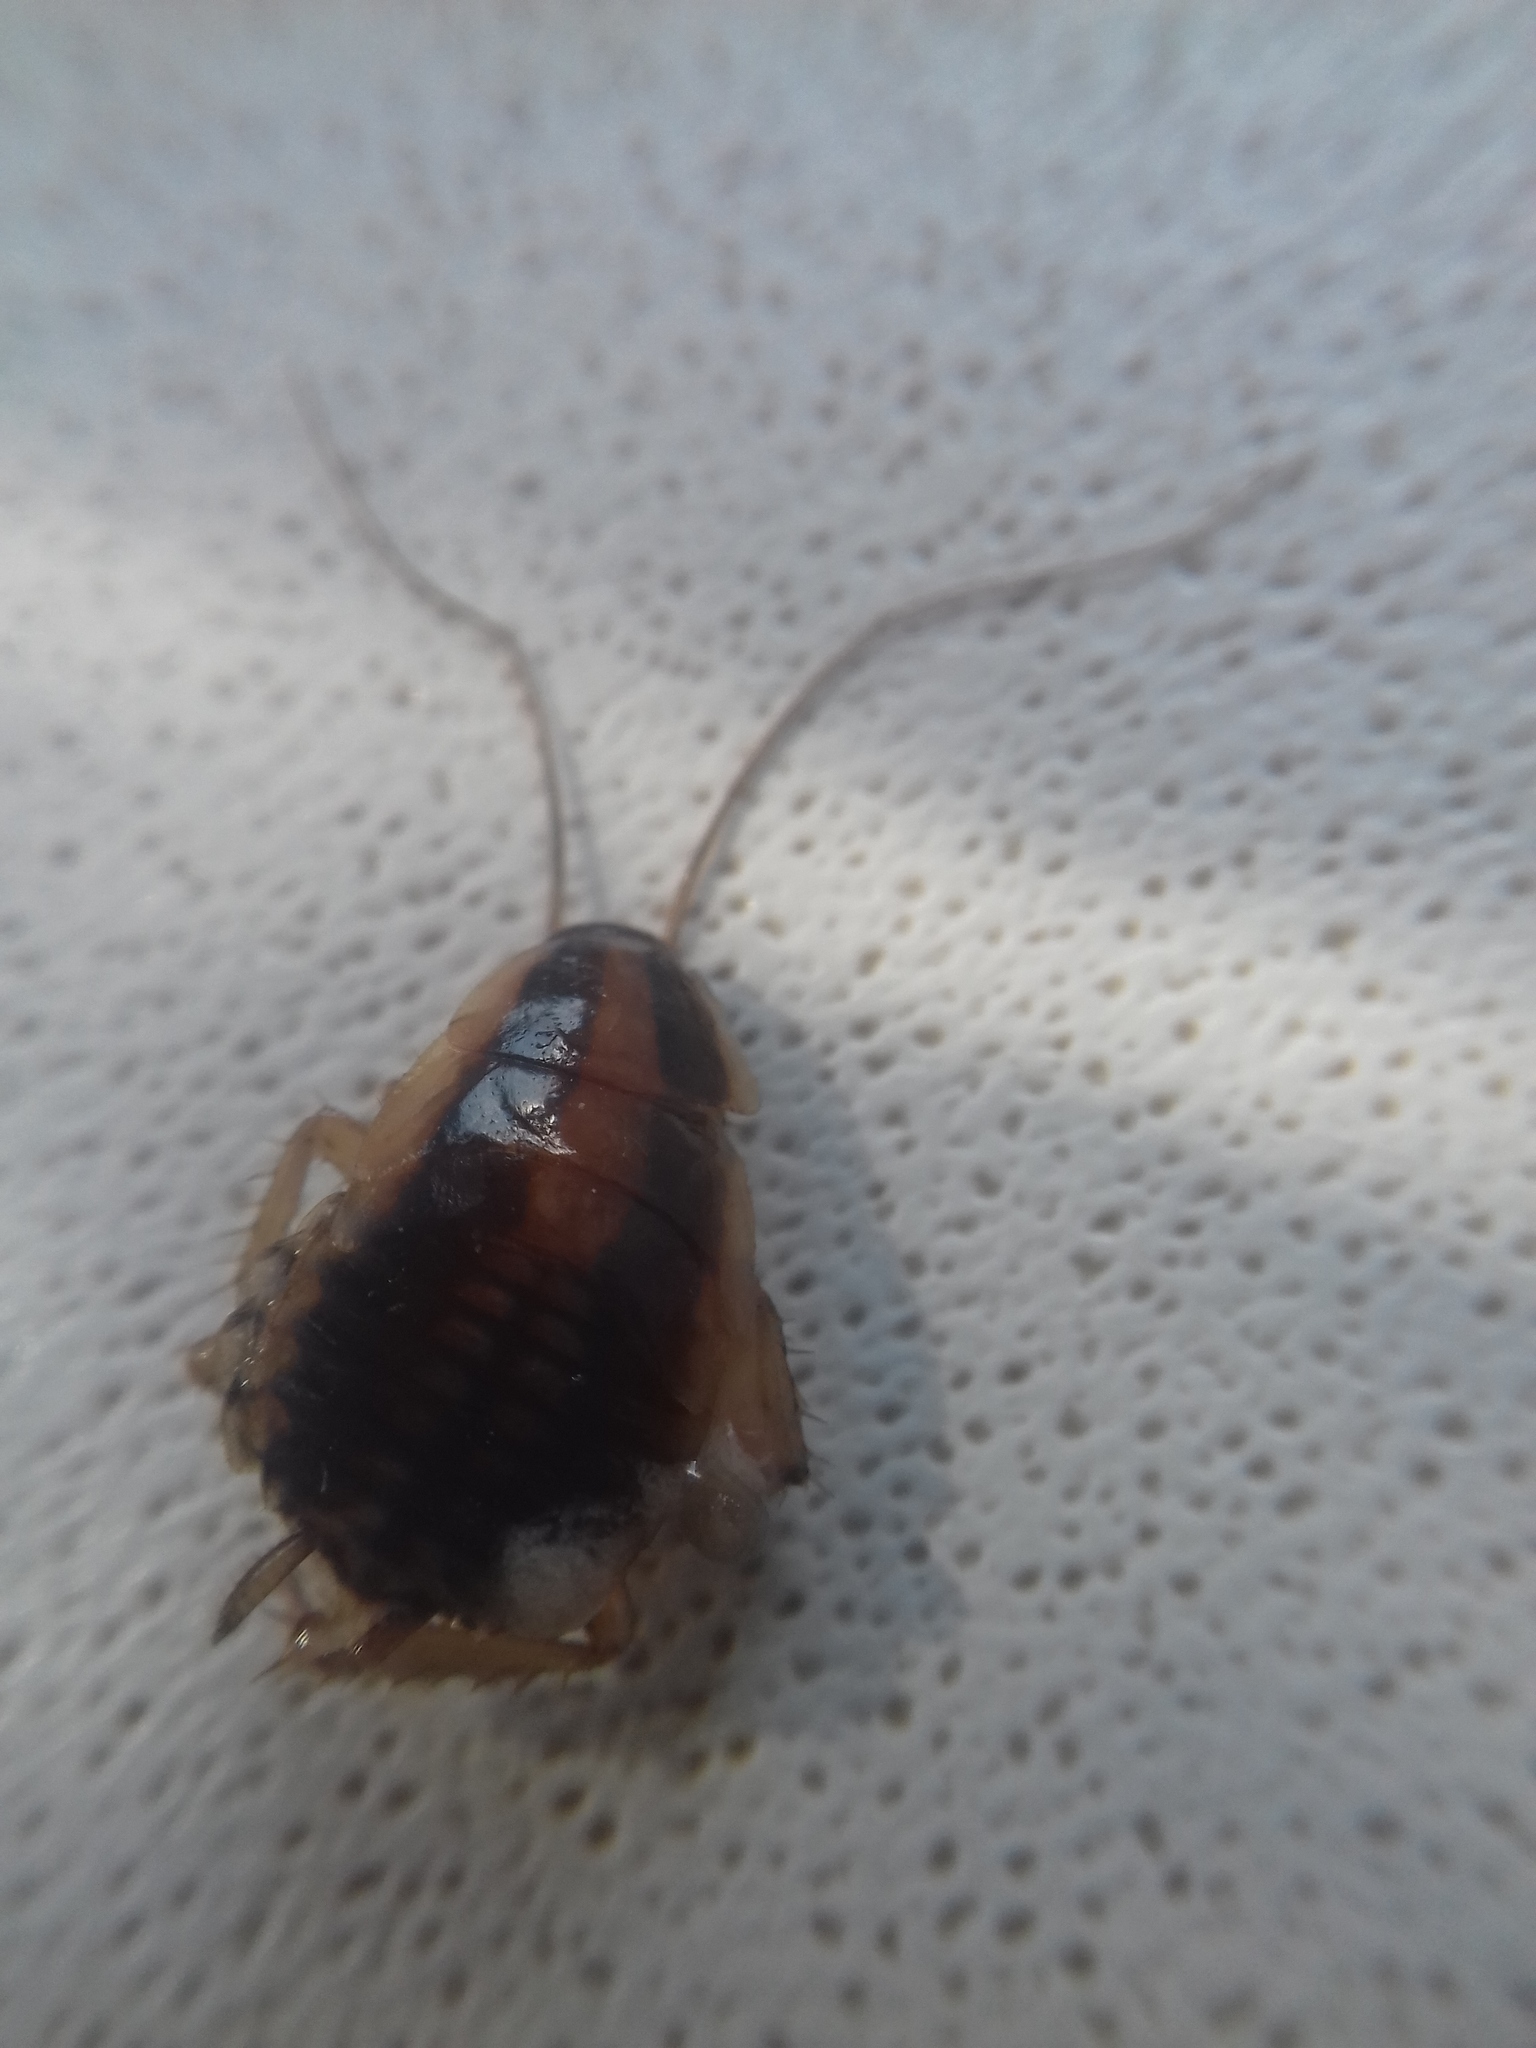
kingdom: Animalia
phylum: Arthropoda
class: Insecta
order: Blattodea
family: Ectobiidae
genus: Blattella
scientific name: Blattella germanica
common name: German cockroach
